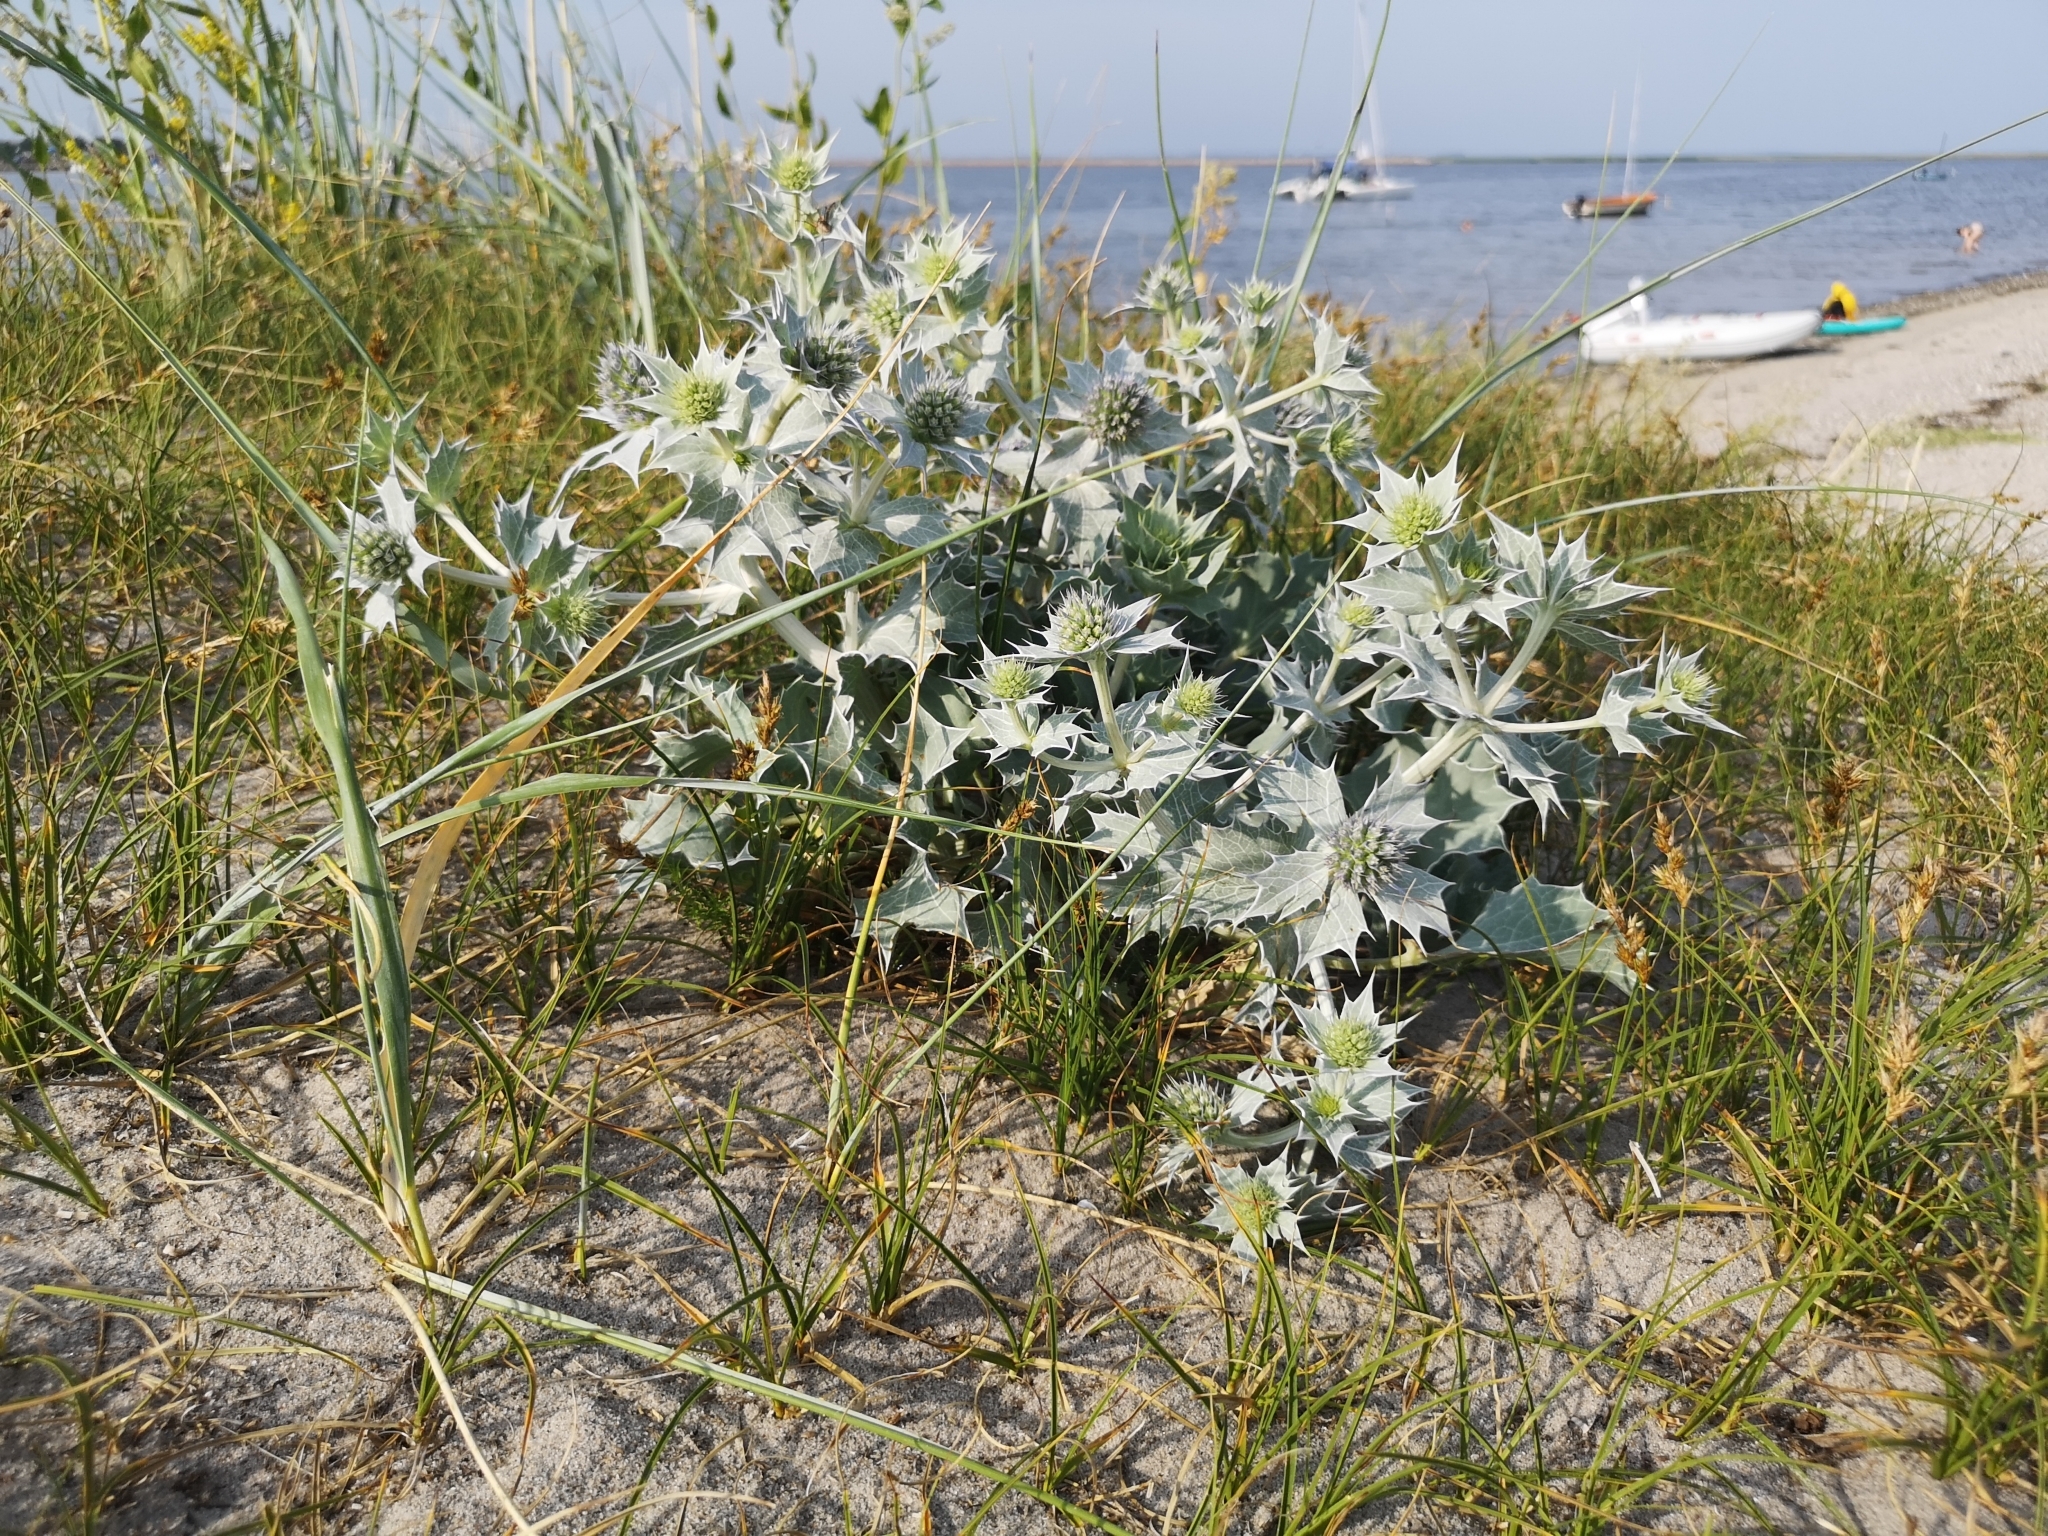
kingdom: Plantae
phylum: Tracheophyta
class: Magnoliopsida
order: Apiales
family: Apiaceae
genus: Eryngium
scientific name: Eryngium maritimum
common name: Sea-holly
